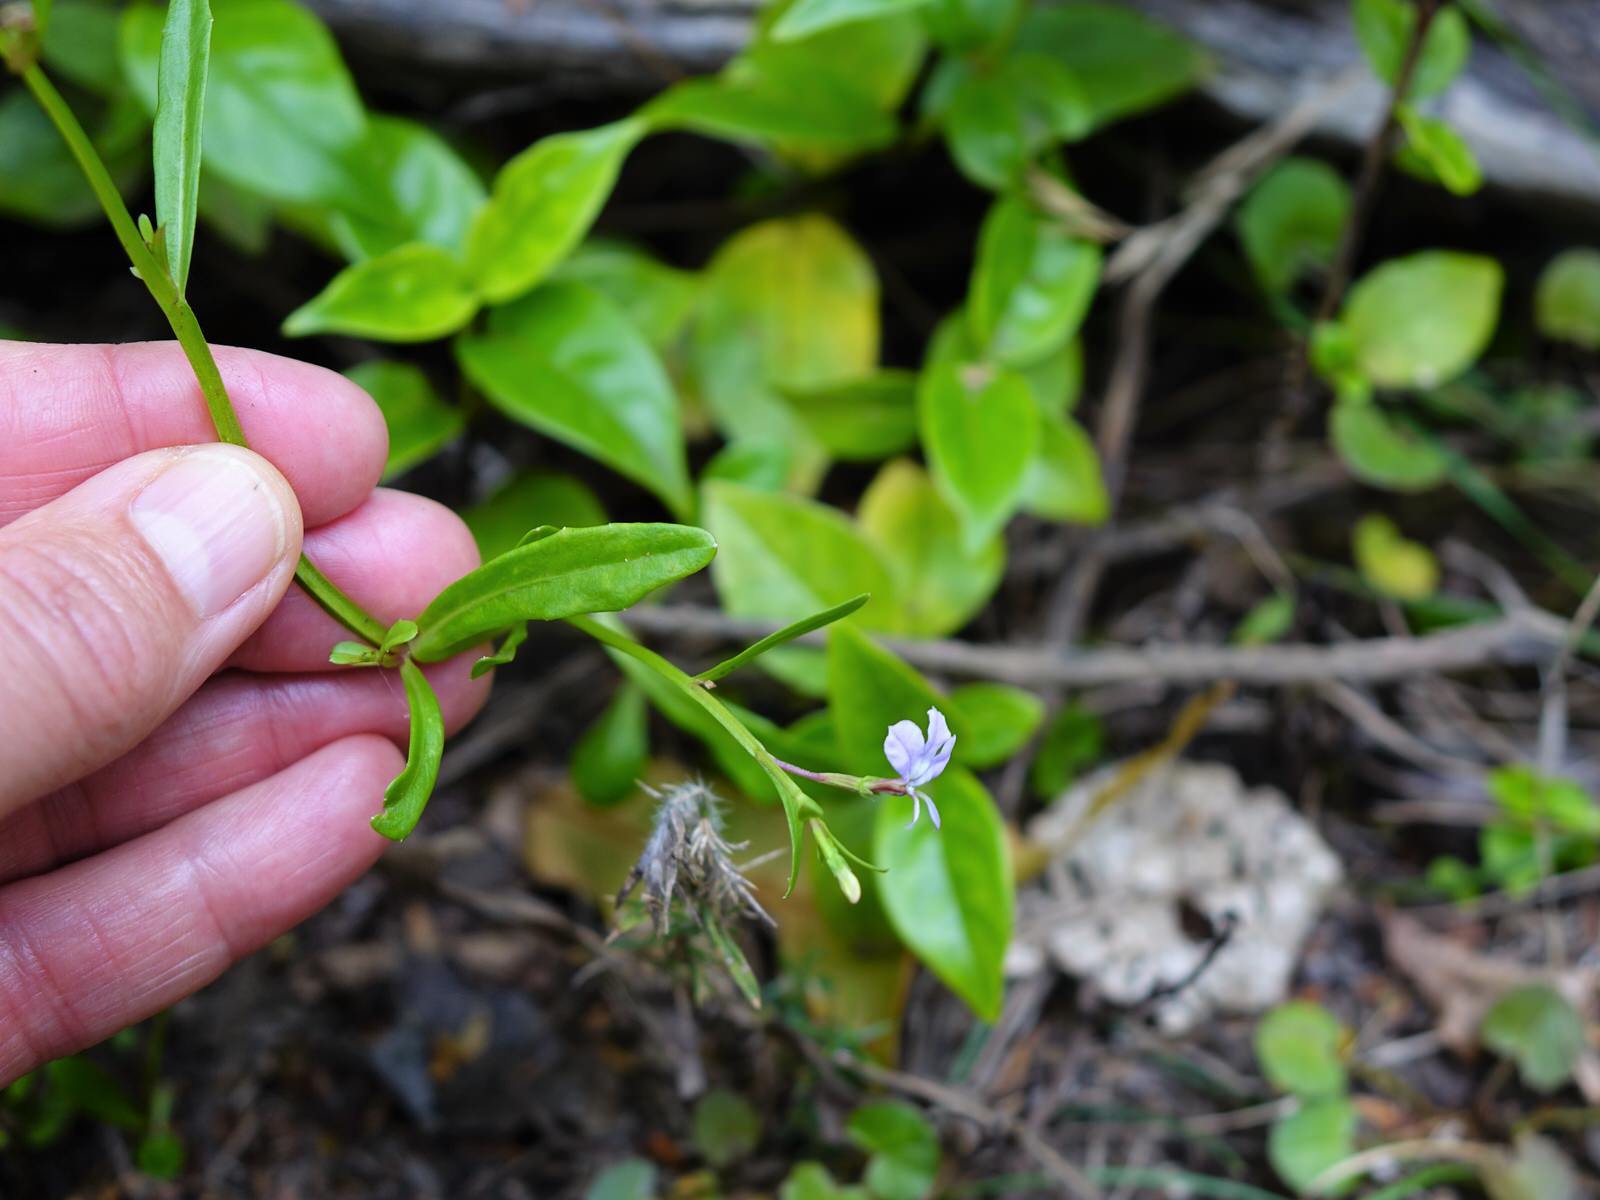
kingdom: Plantae
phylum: Tracheophyta
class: Magnoliopsida
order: Asterales
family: Campanulaceae
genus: Lobelia
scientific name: Lobelia anceps
